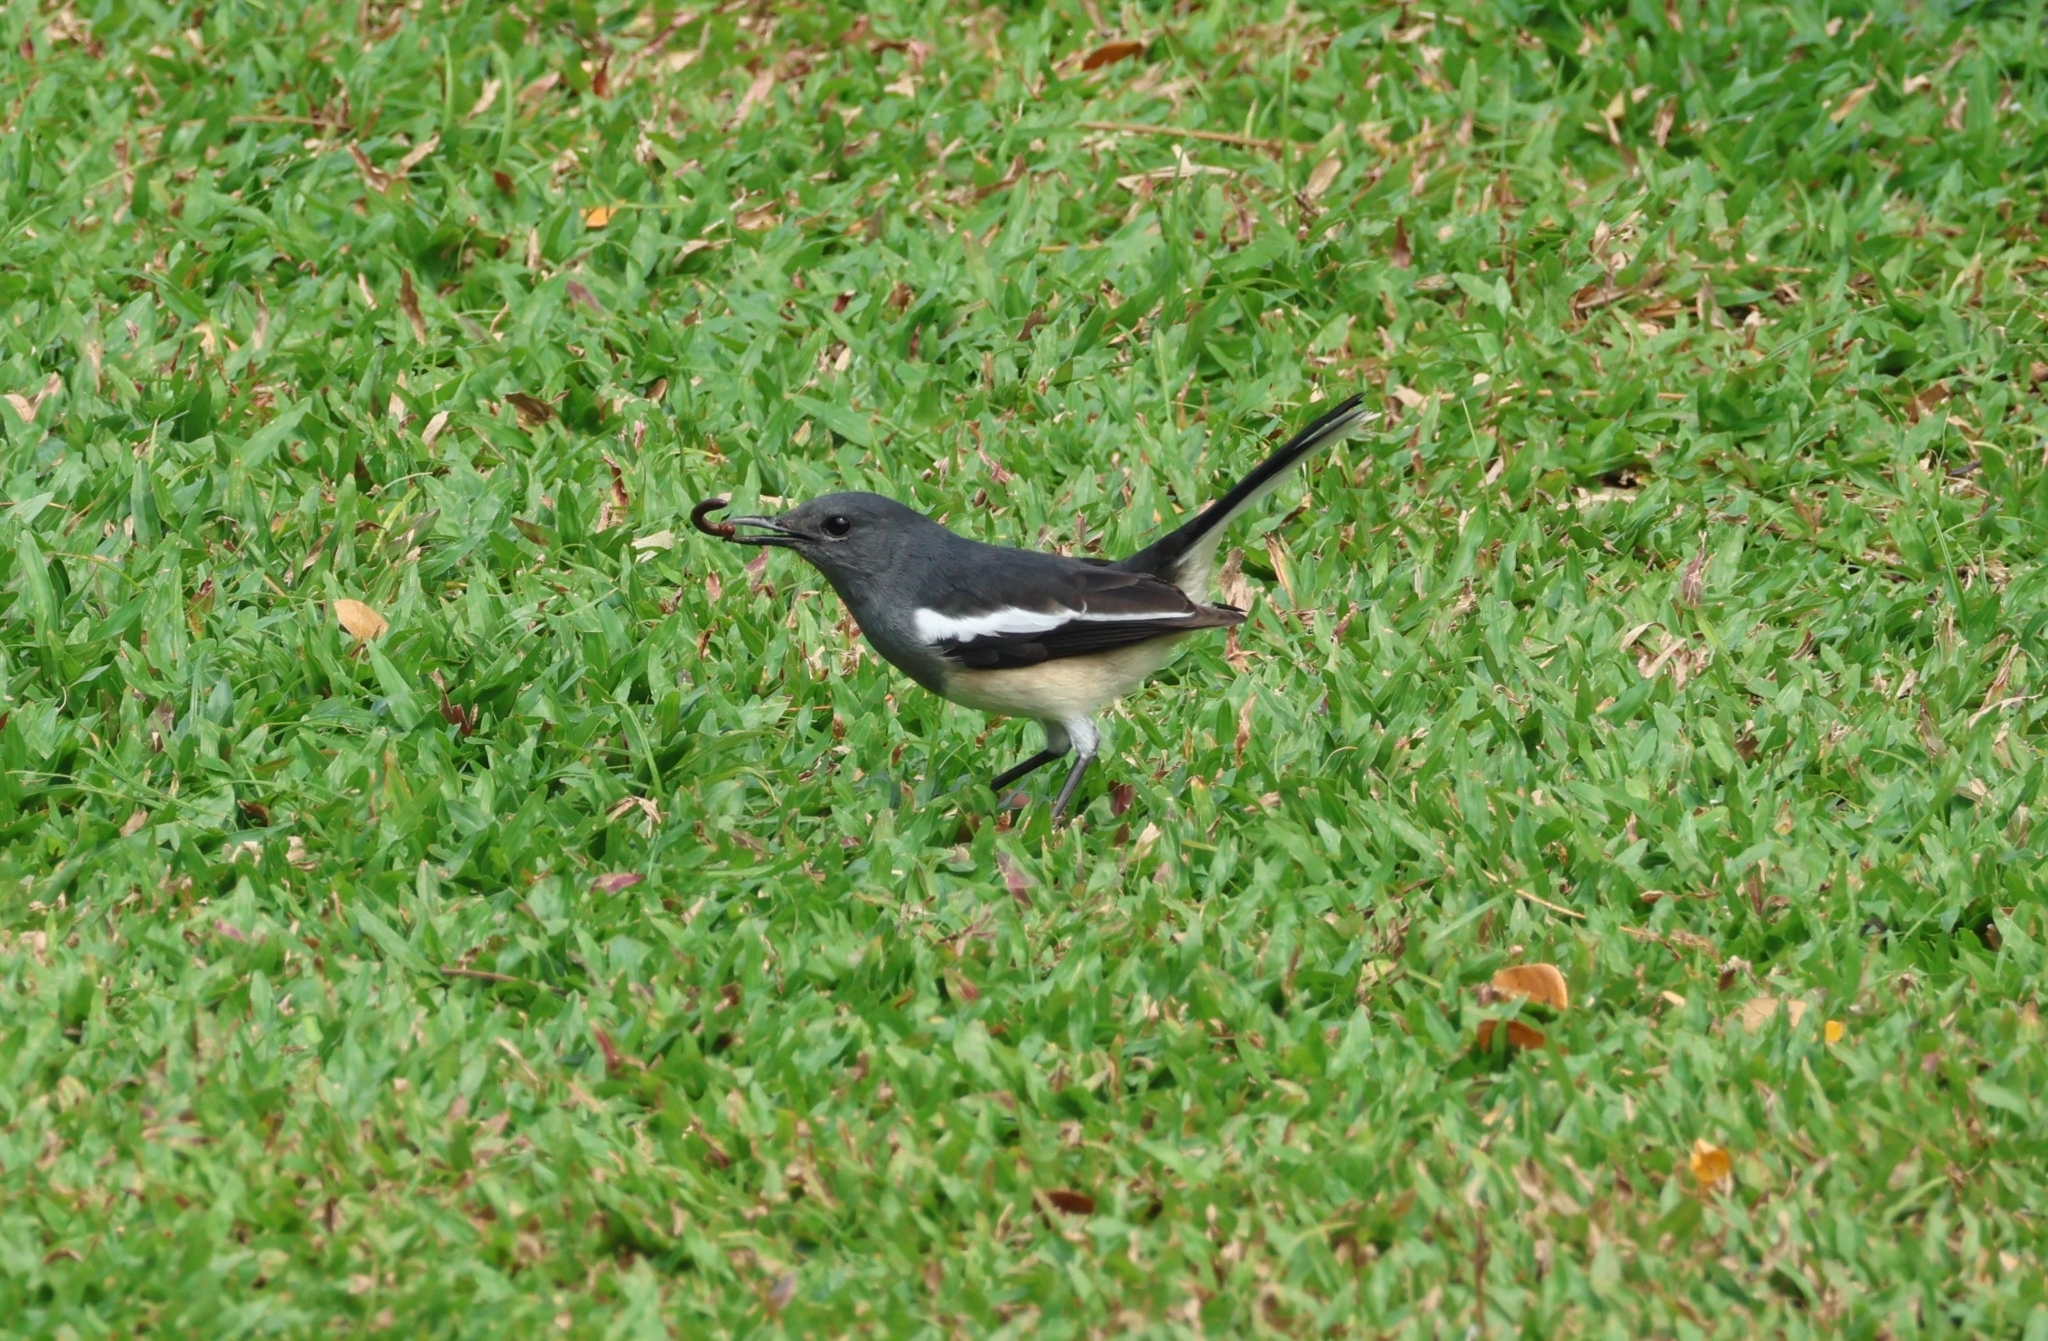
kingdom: Animalia
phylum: Chordata
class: Aves
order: Passeriformes
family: Muscicapidae
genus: Copsychus
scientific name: Copsychus saularis
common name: Oriental magpie-robin
